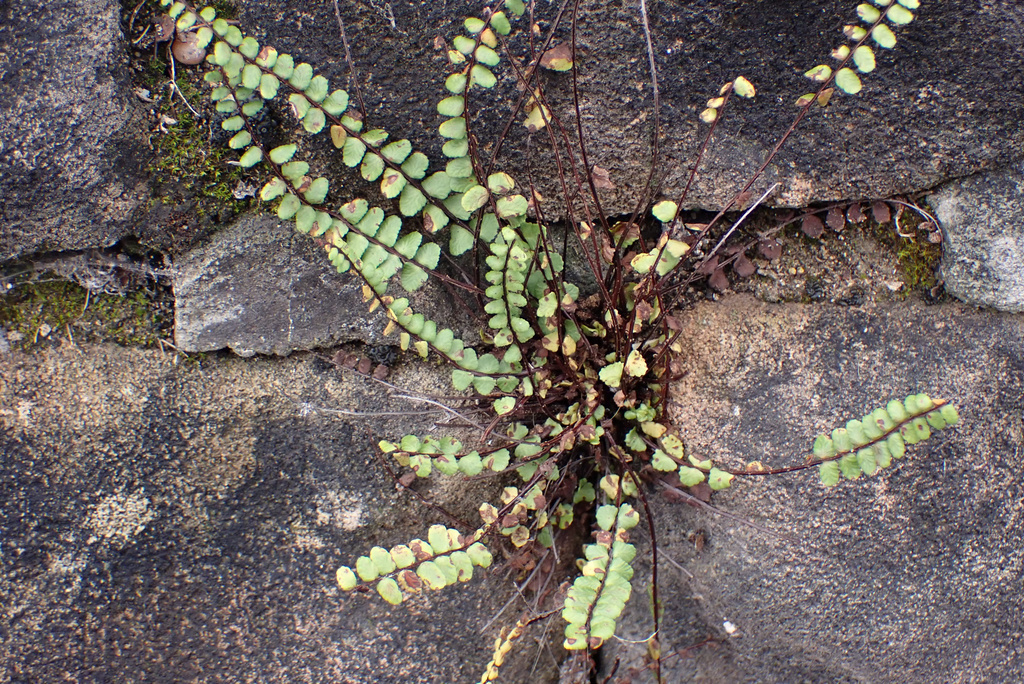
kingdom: Plantae
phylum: Tracheophyta
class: Polypodiopsida
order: Polypodiales
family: Aspleniaceae
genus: Asplenium
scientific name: Asplenium trichomanes
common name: Maidenhair spleenwort
